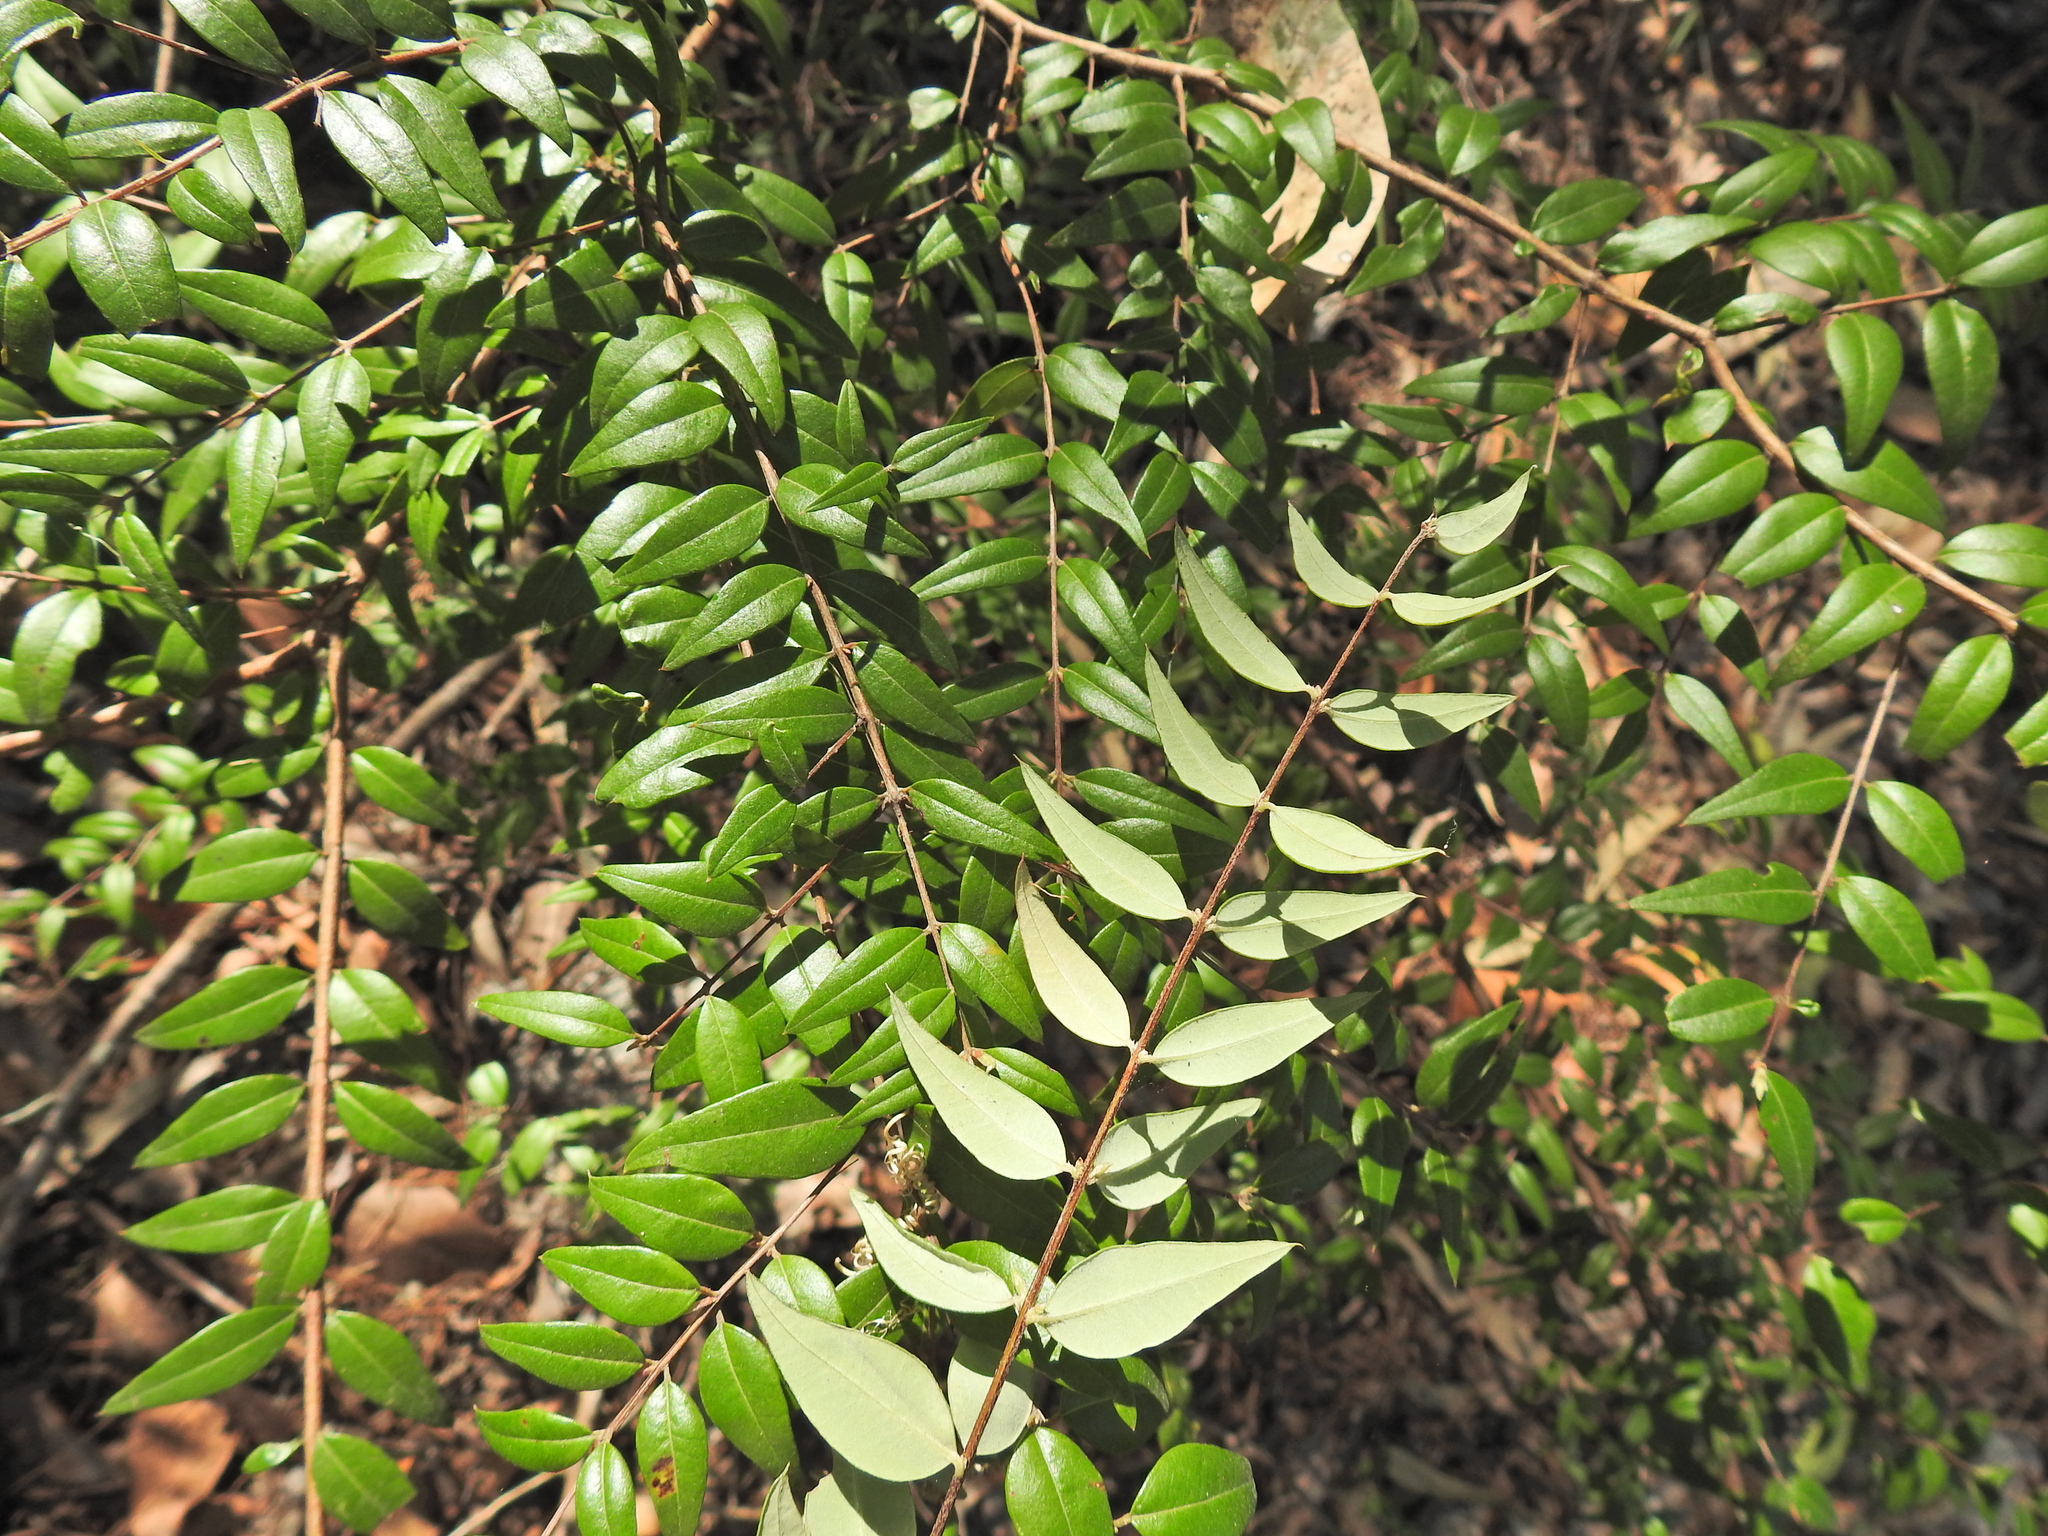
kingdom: Plantae
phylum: Tracheophyta
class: Magnoliopsida
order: Myrtales
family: Myrtaceae
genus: Austromyrtus
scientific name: Austromyrtus dulcis
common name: Migden-berry
